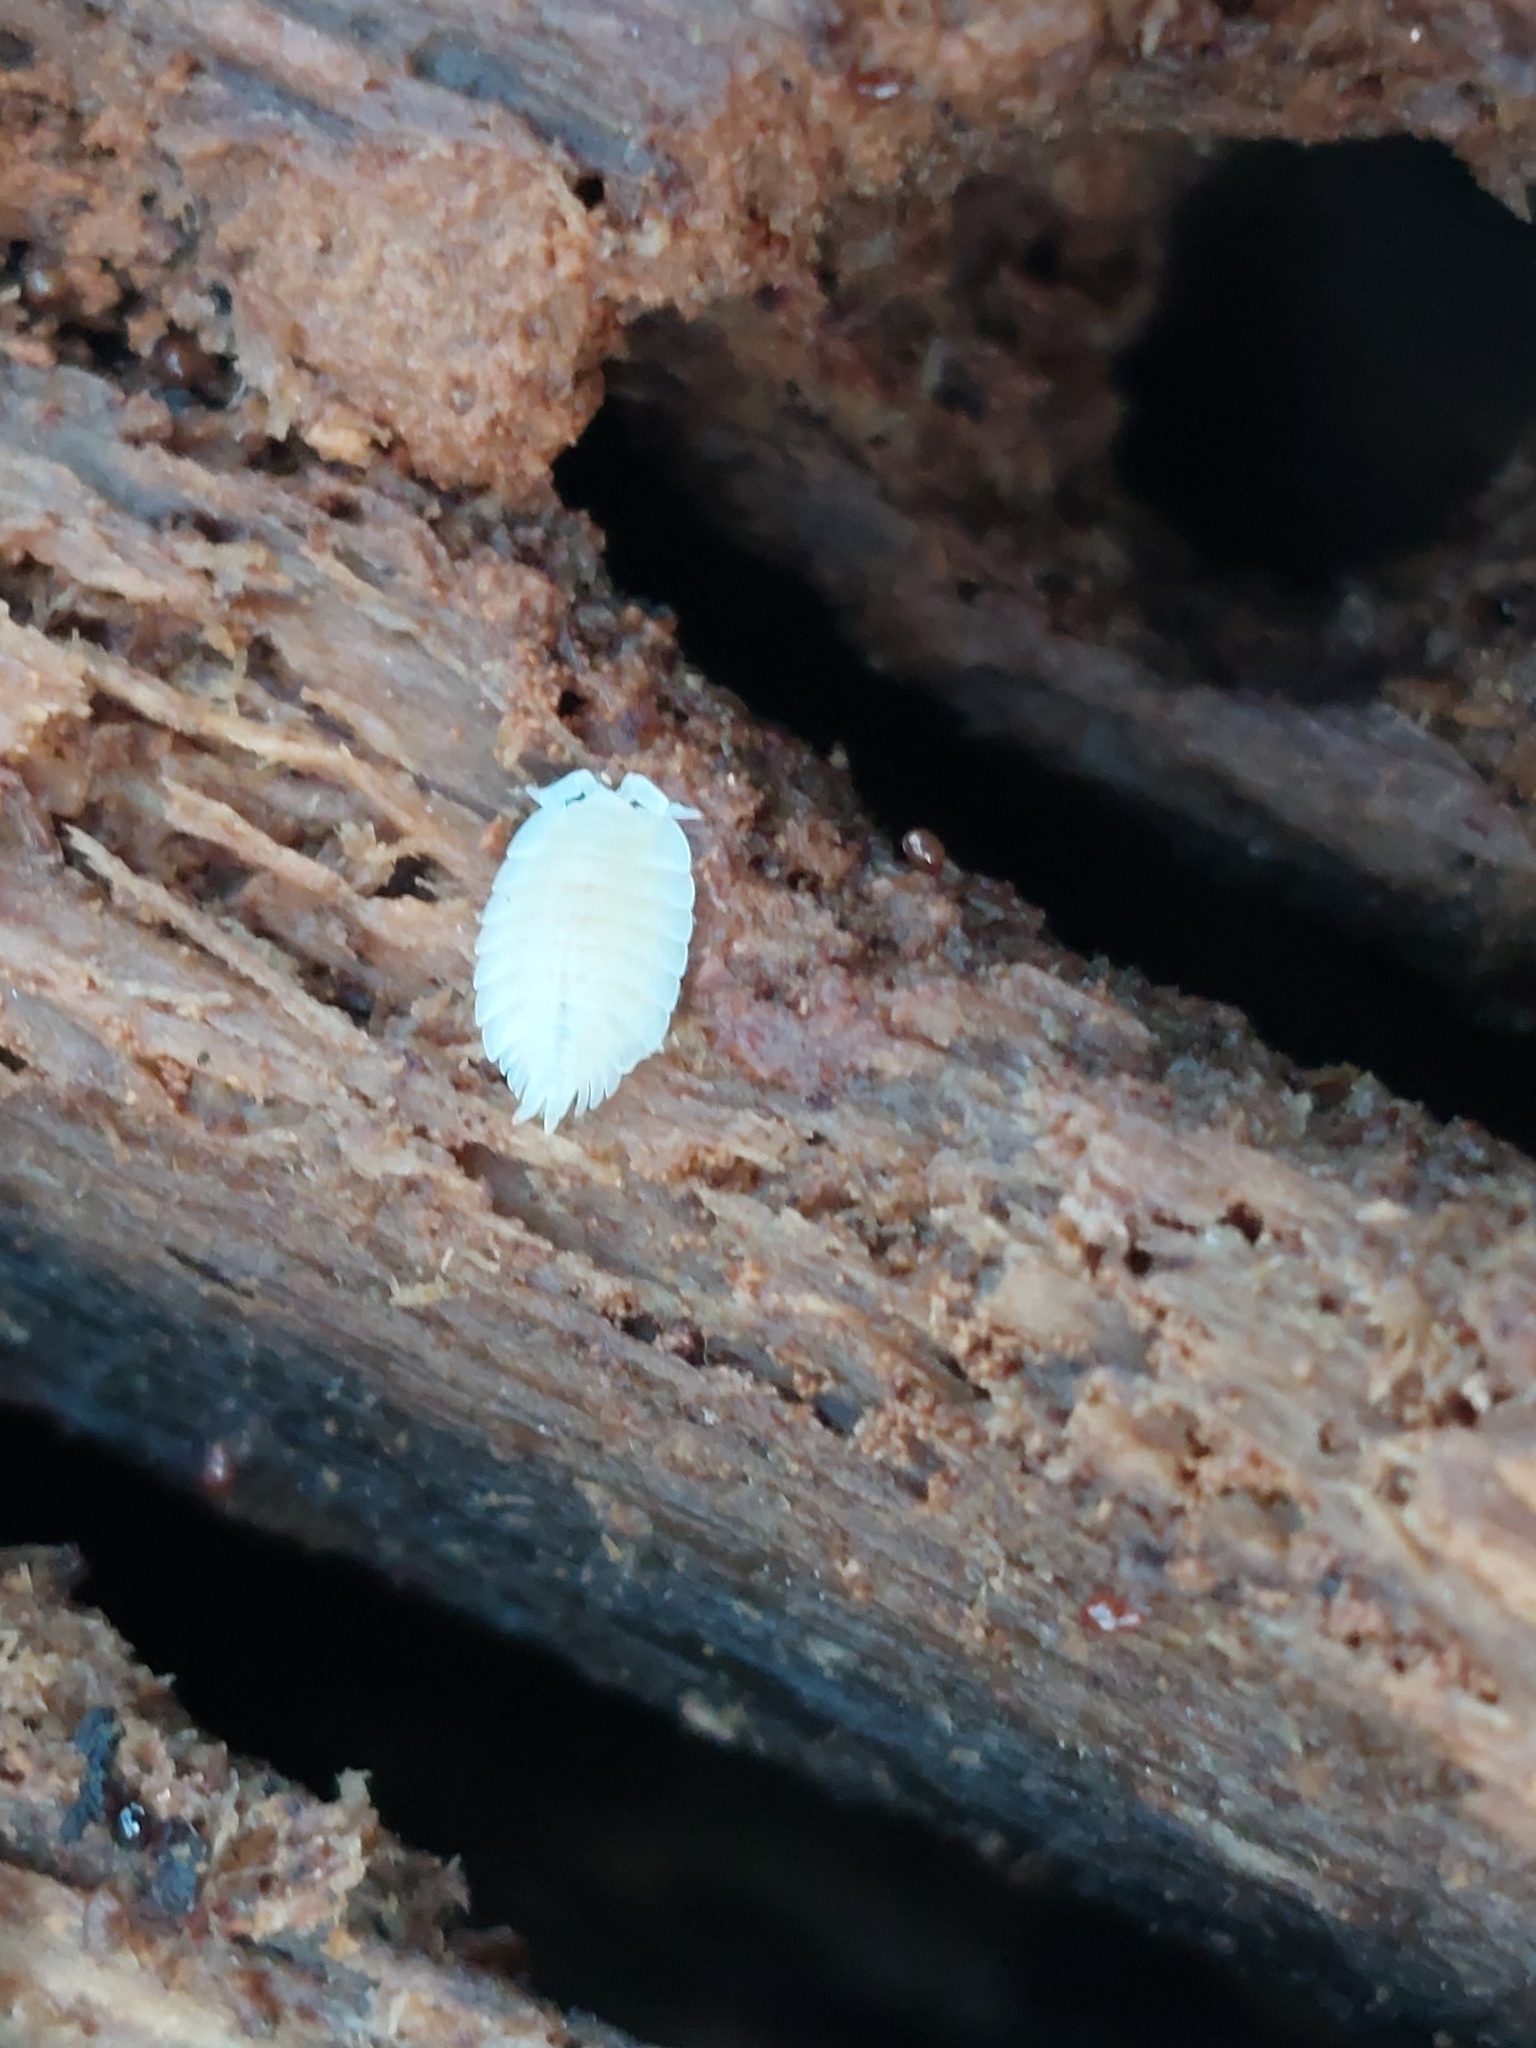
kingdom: Animalia
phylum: Arthropoda
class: Malacostraca
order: Isopoda
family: Platyarthridae
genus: Platyarthrus
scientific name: Platyarthrus hoffmannseggii
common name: Ant woodlouse
